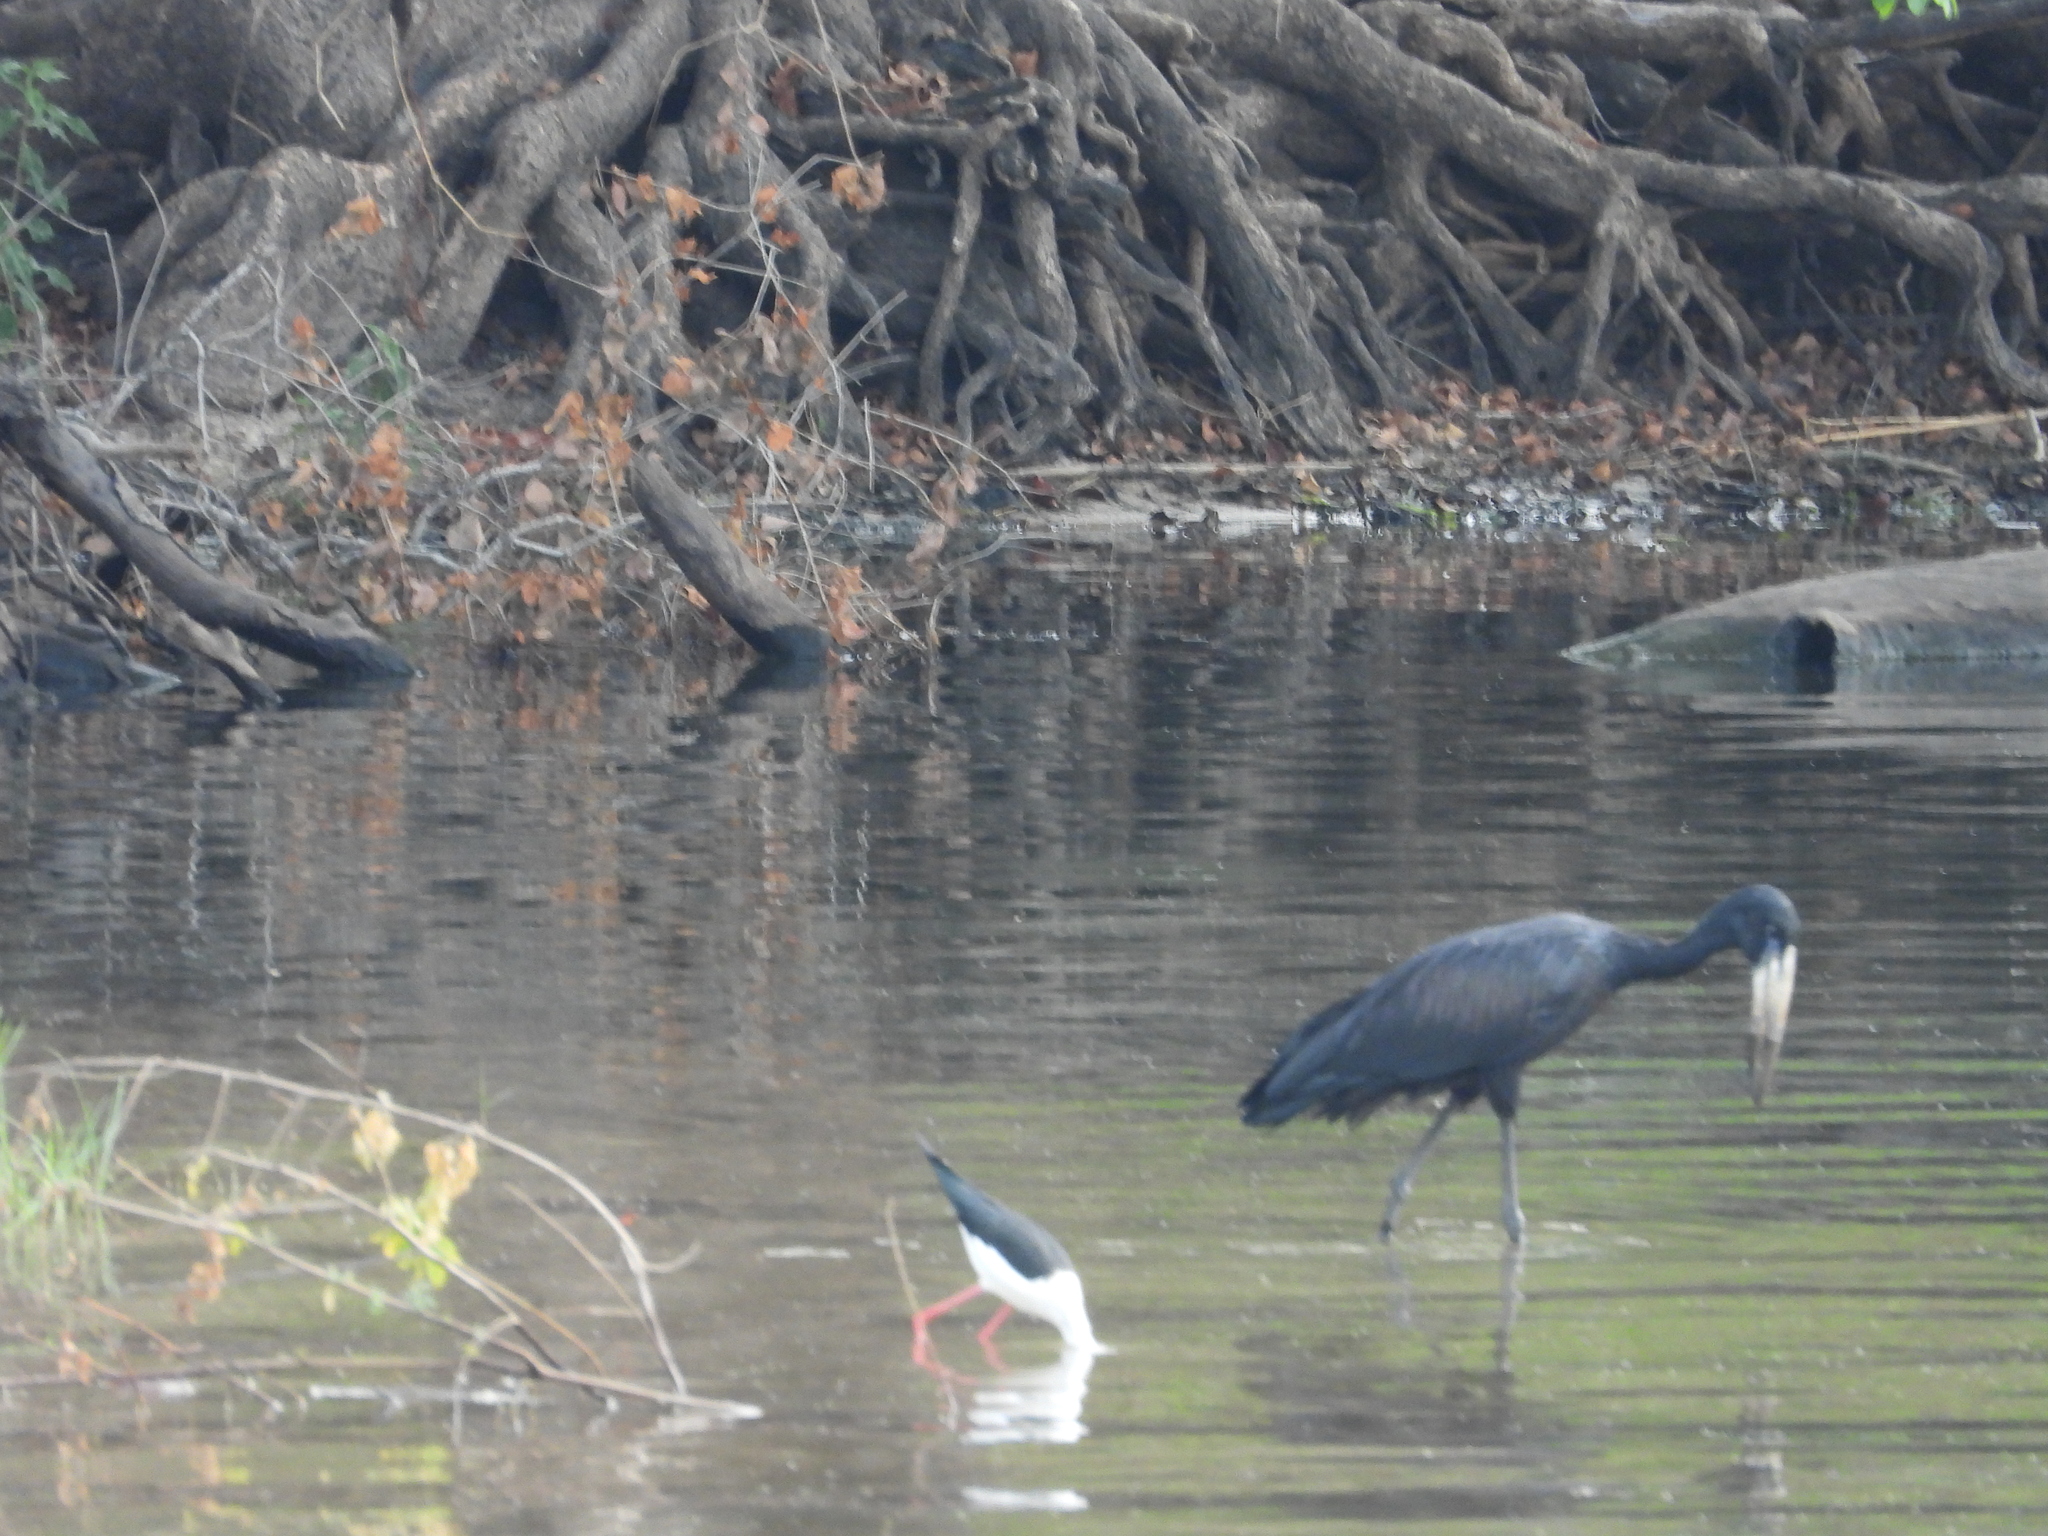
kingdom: Animalia
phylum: Chordata
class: Aves
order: Ciconiiformes
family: Ciconiidae
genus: Anastomus
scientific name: Anastomus lamelligerus
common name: African openbill
